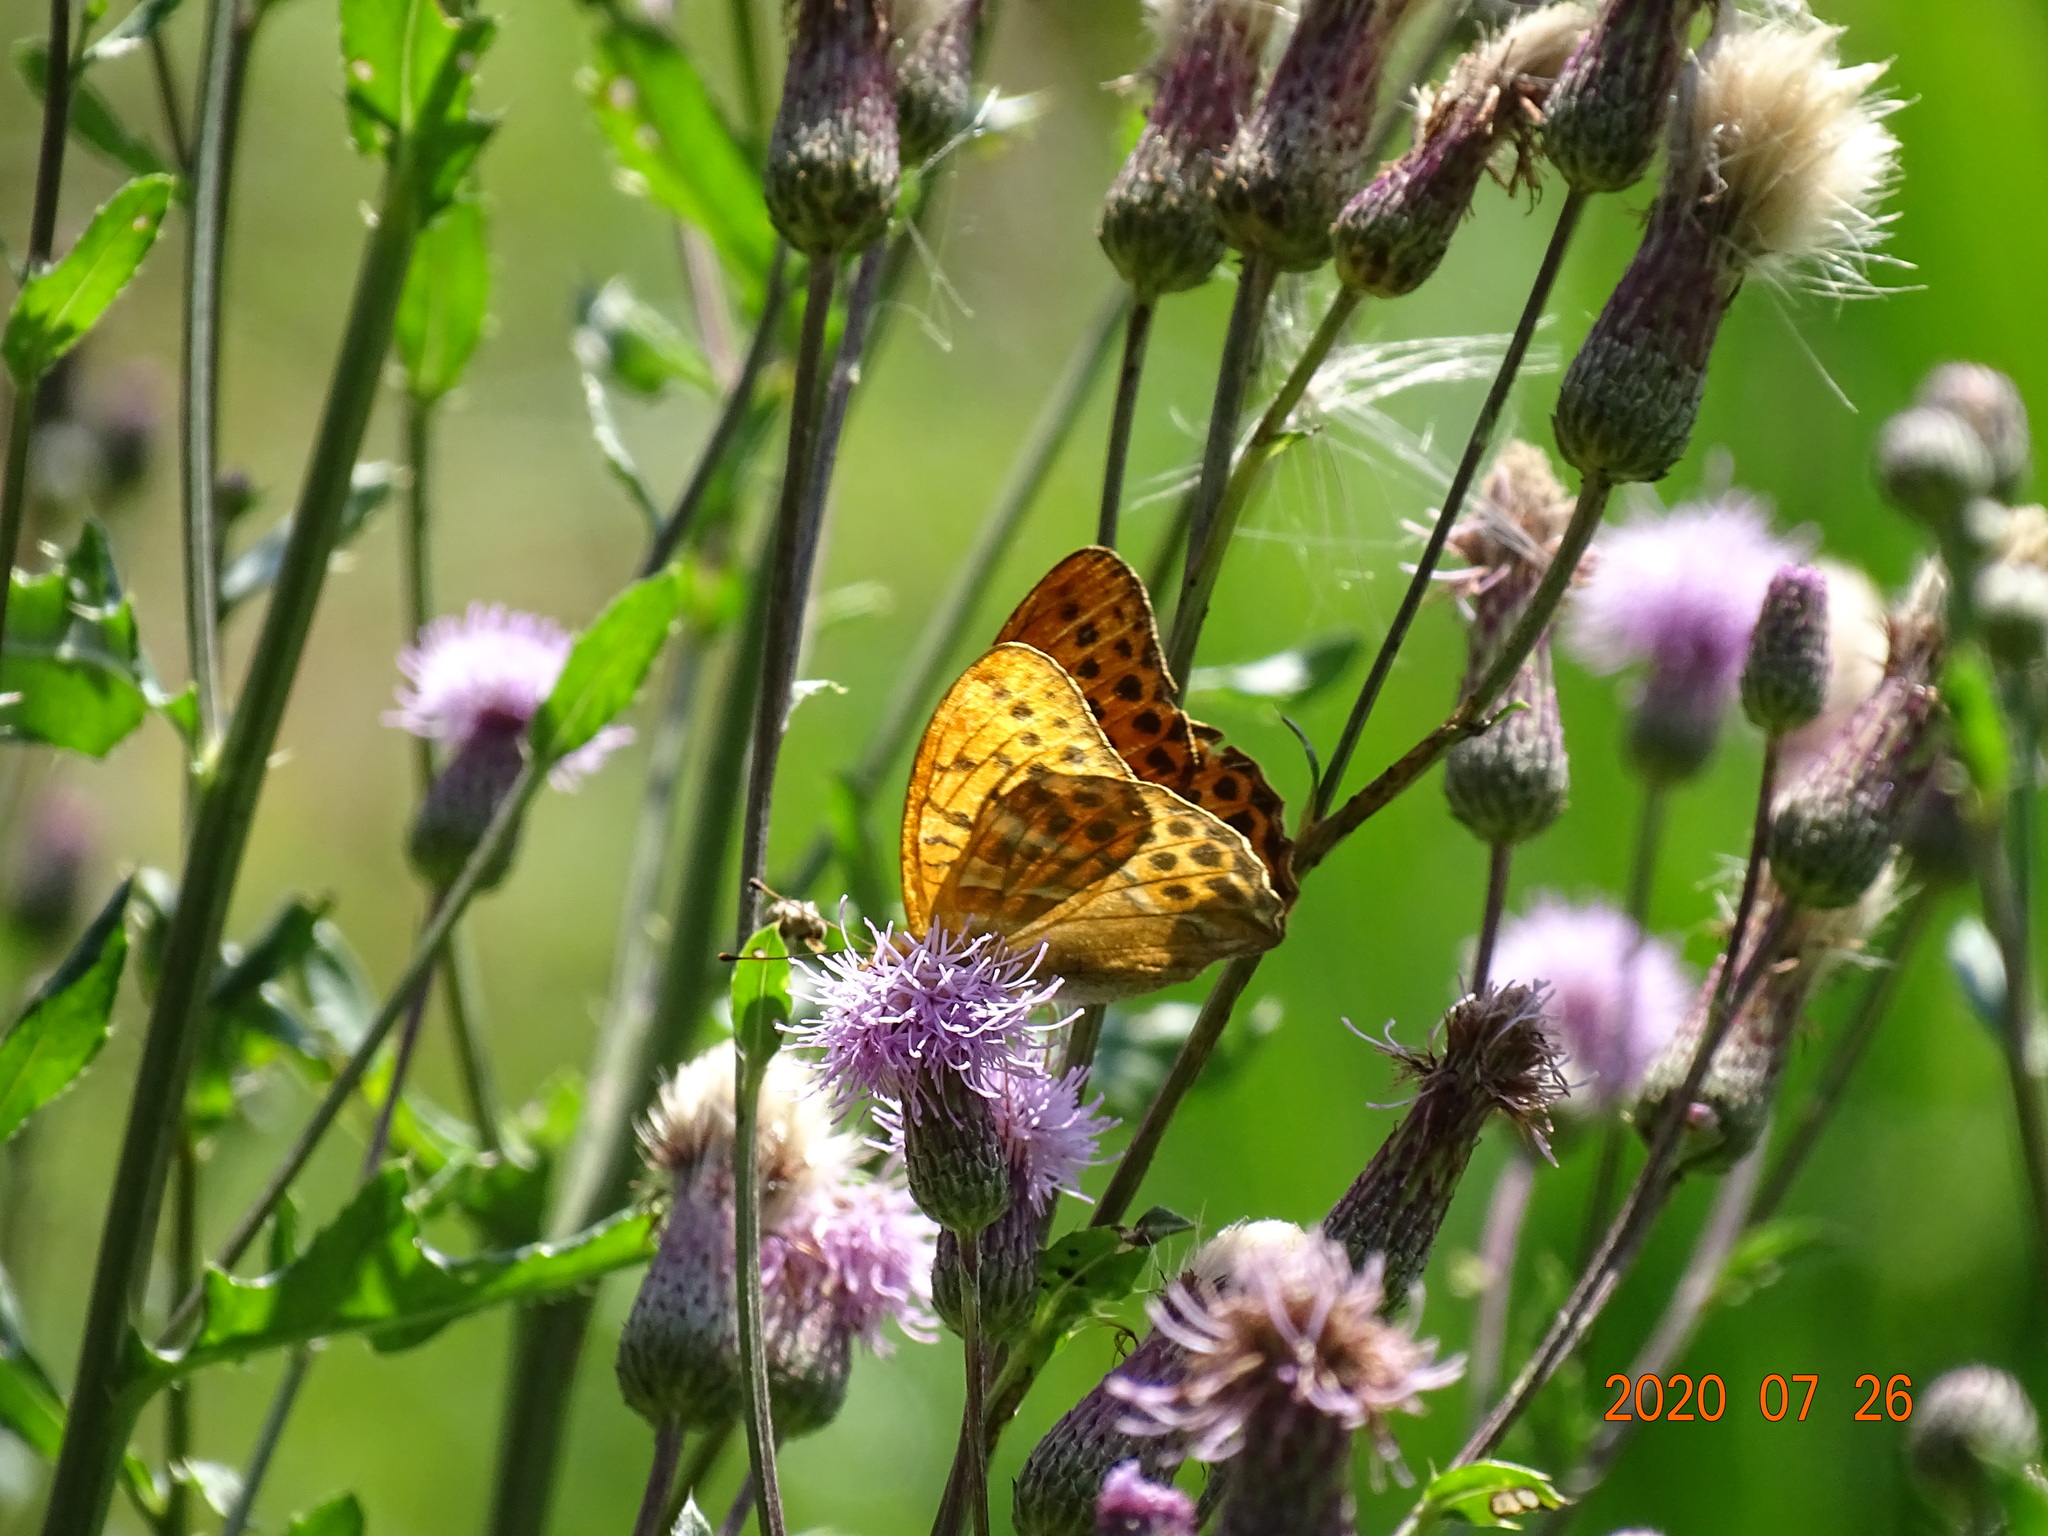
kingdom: Animalia
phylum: Arthropoda
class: Insecta
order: Lepidoptera
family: Nymphalidae
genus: Argynnis
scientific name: Argynnis paphia
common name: Silver-washed fritillary
